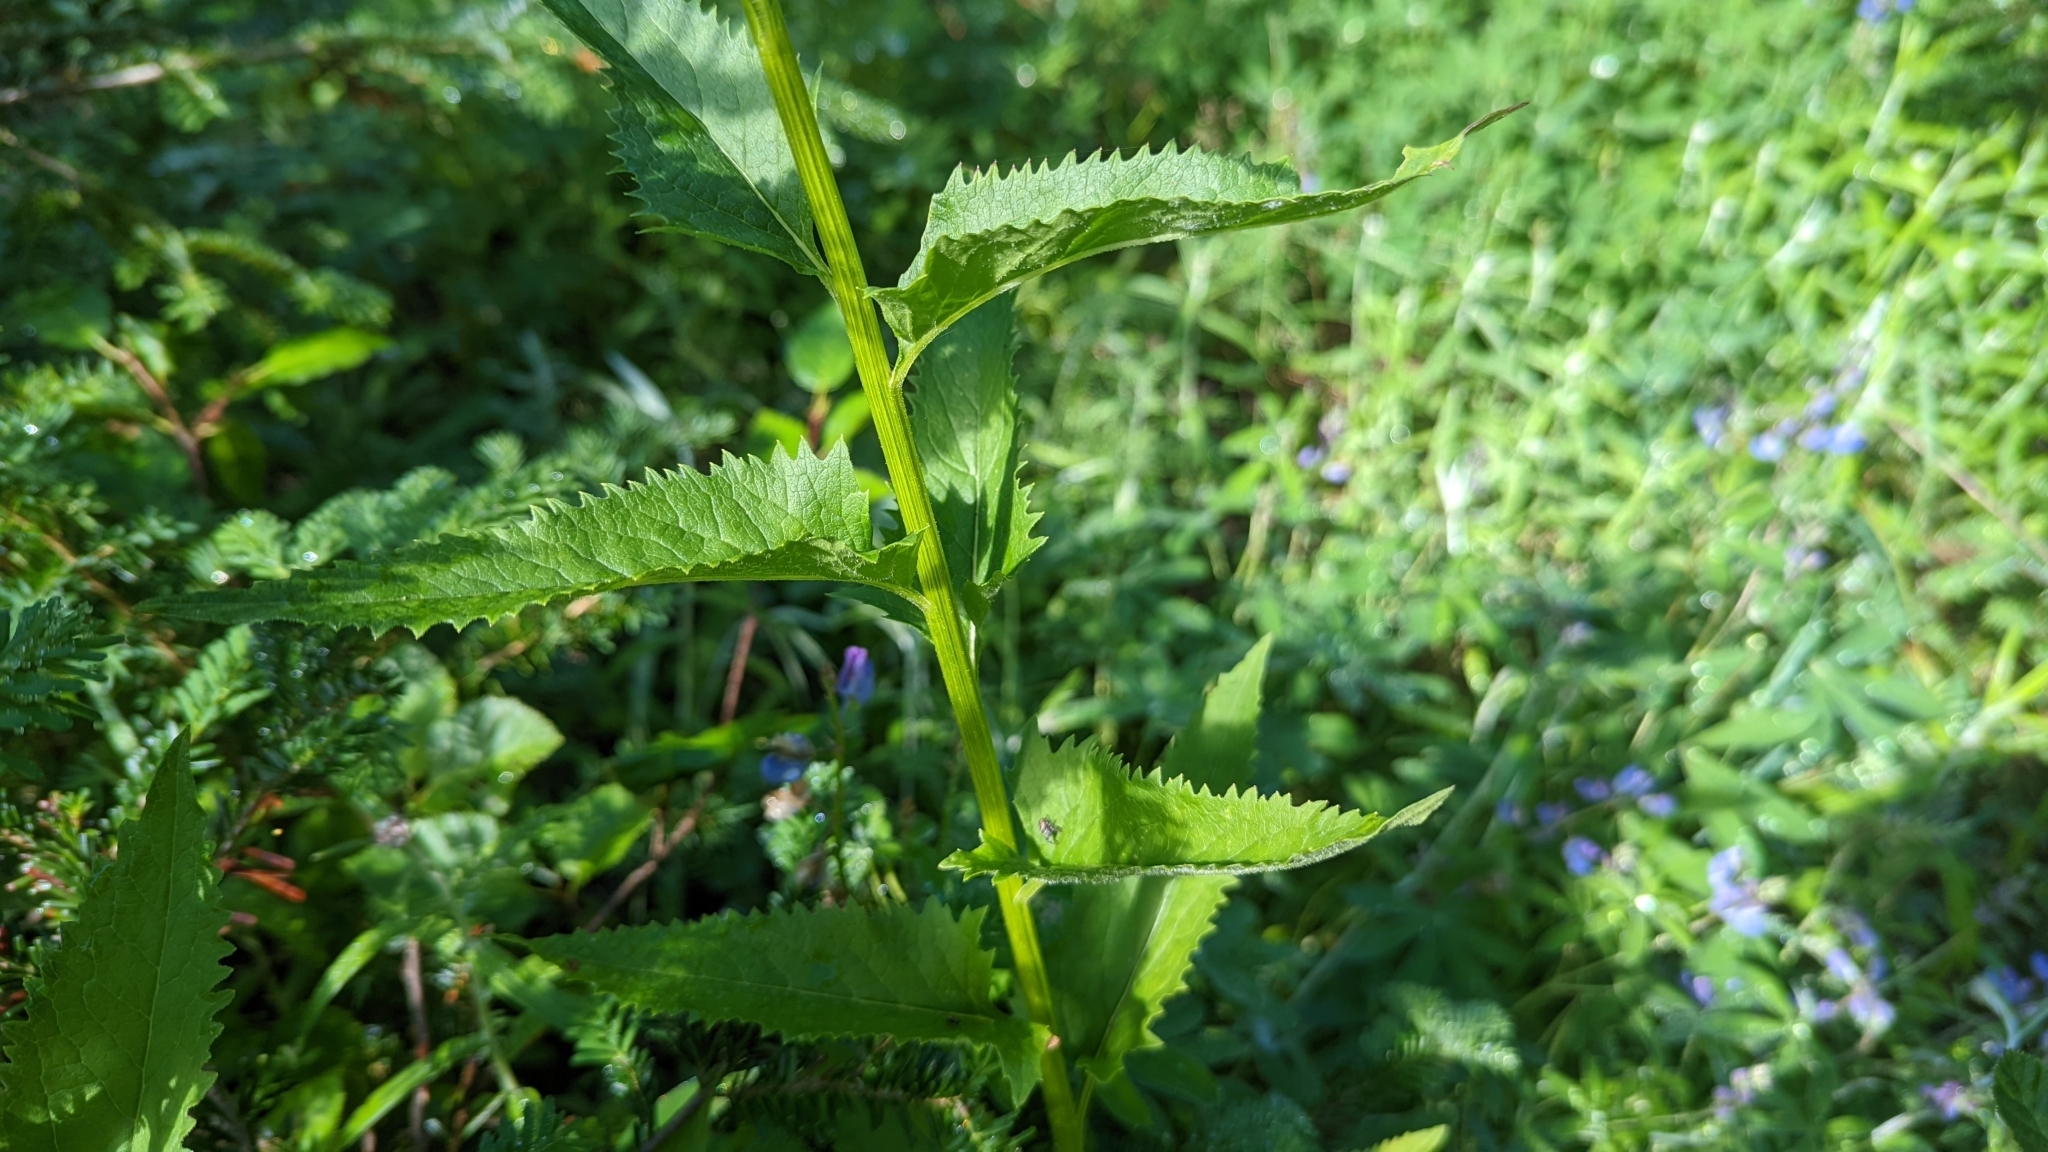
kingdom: Plantae
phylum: Tracheophyta
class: Magnoliopsida
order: Asterales
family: Asteraceae
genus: Senecio
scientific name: Senecio triangularis
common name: Arrowleaf butterweed
